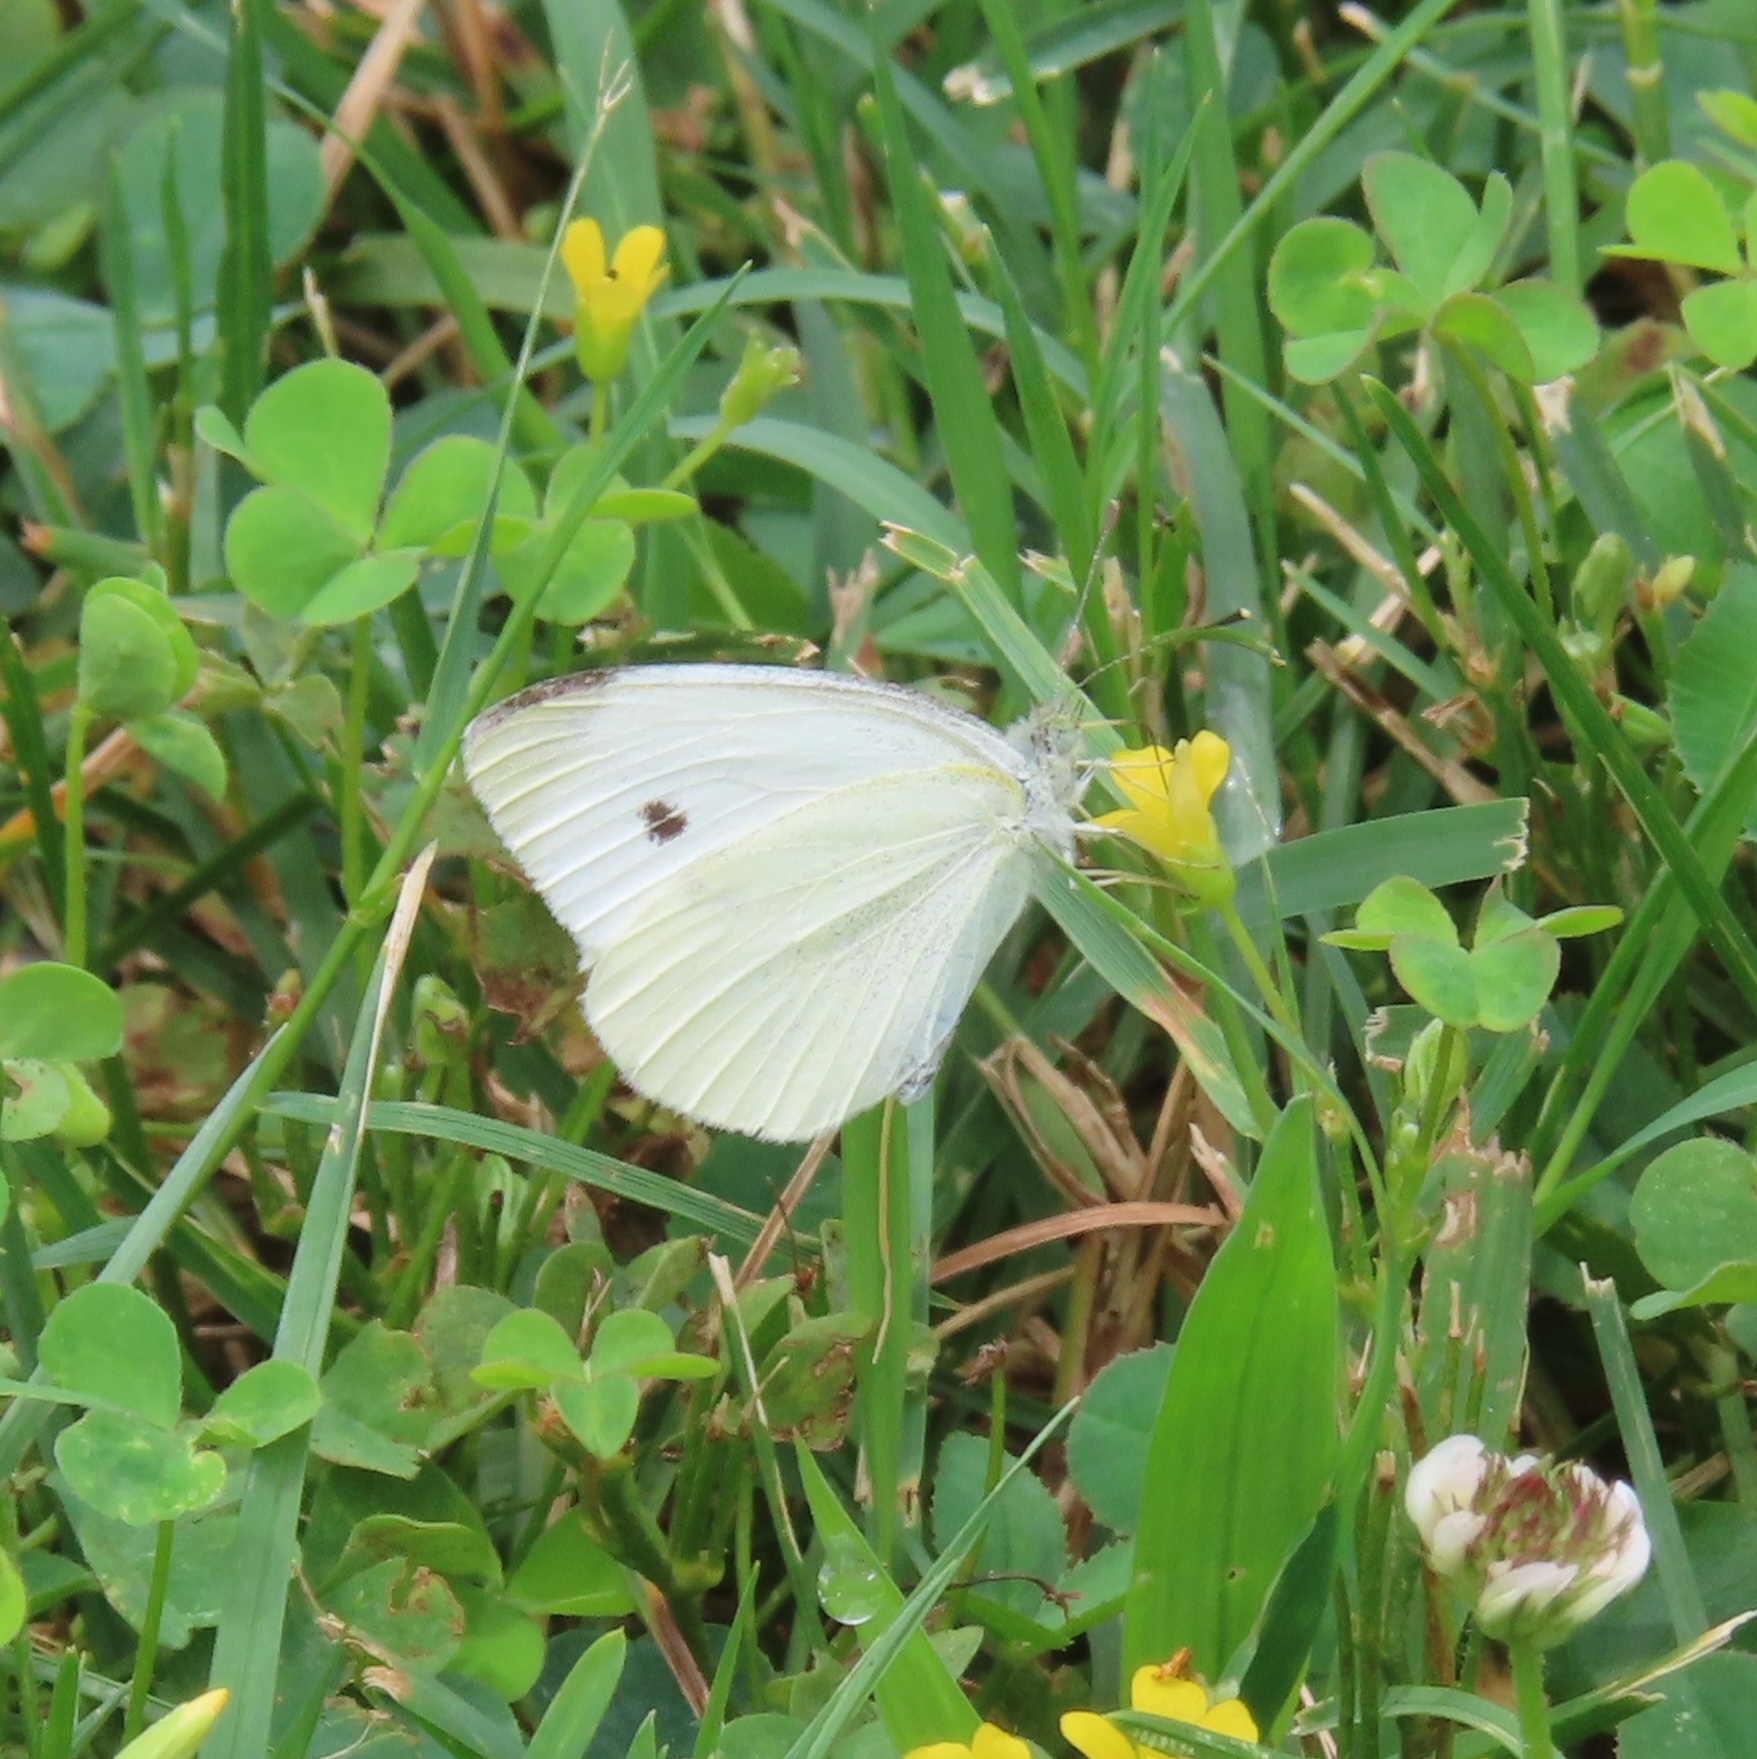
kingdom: Animalia
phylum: Arthropoda
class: Insecta
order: Lepidoptera
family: Pieridae
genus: Pieris
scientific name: Pieris rapae
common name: Small white
